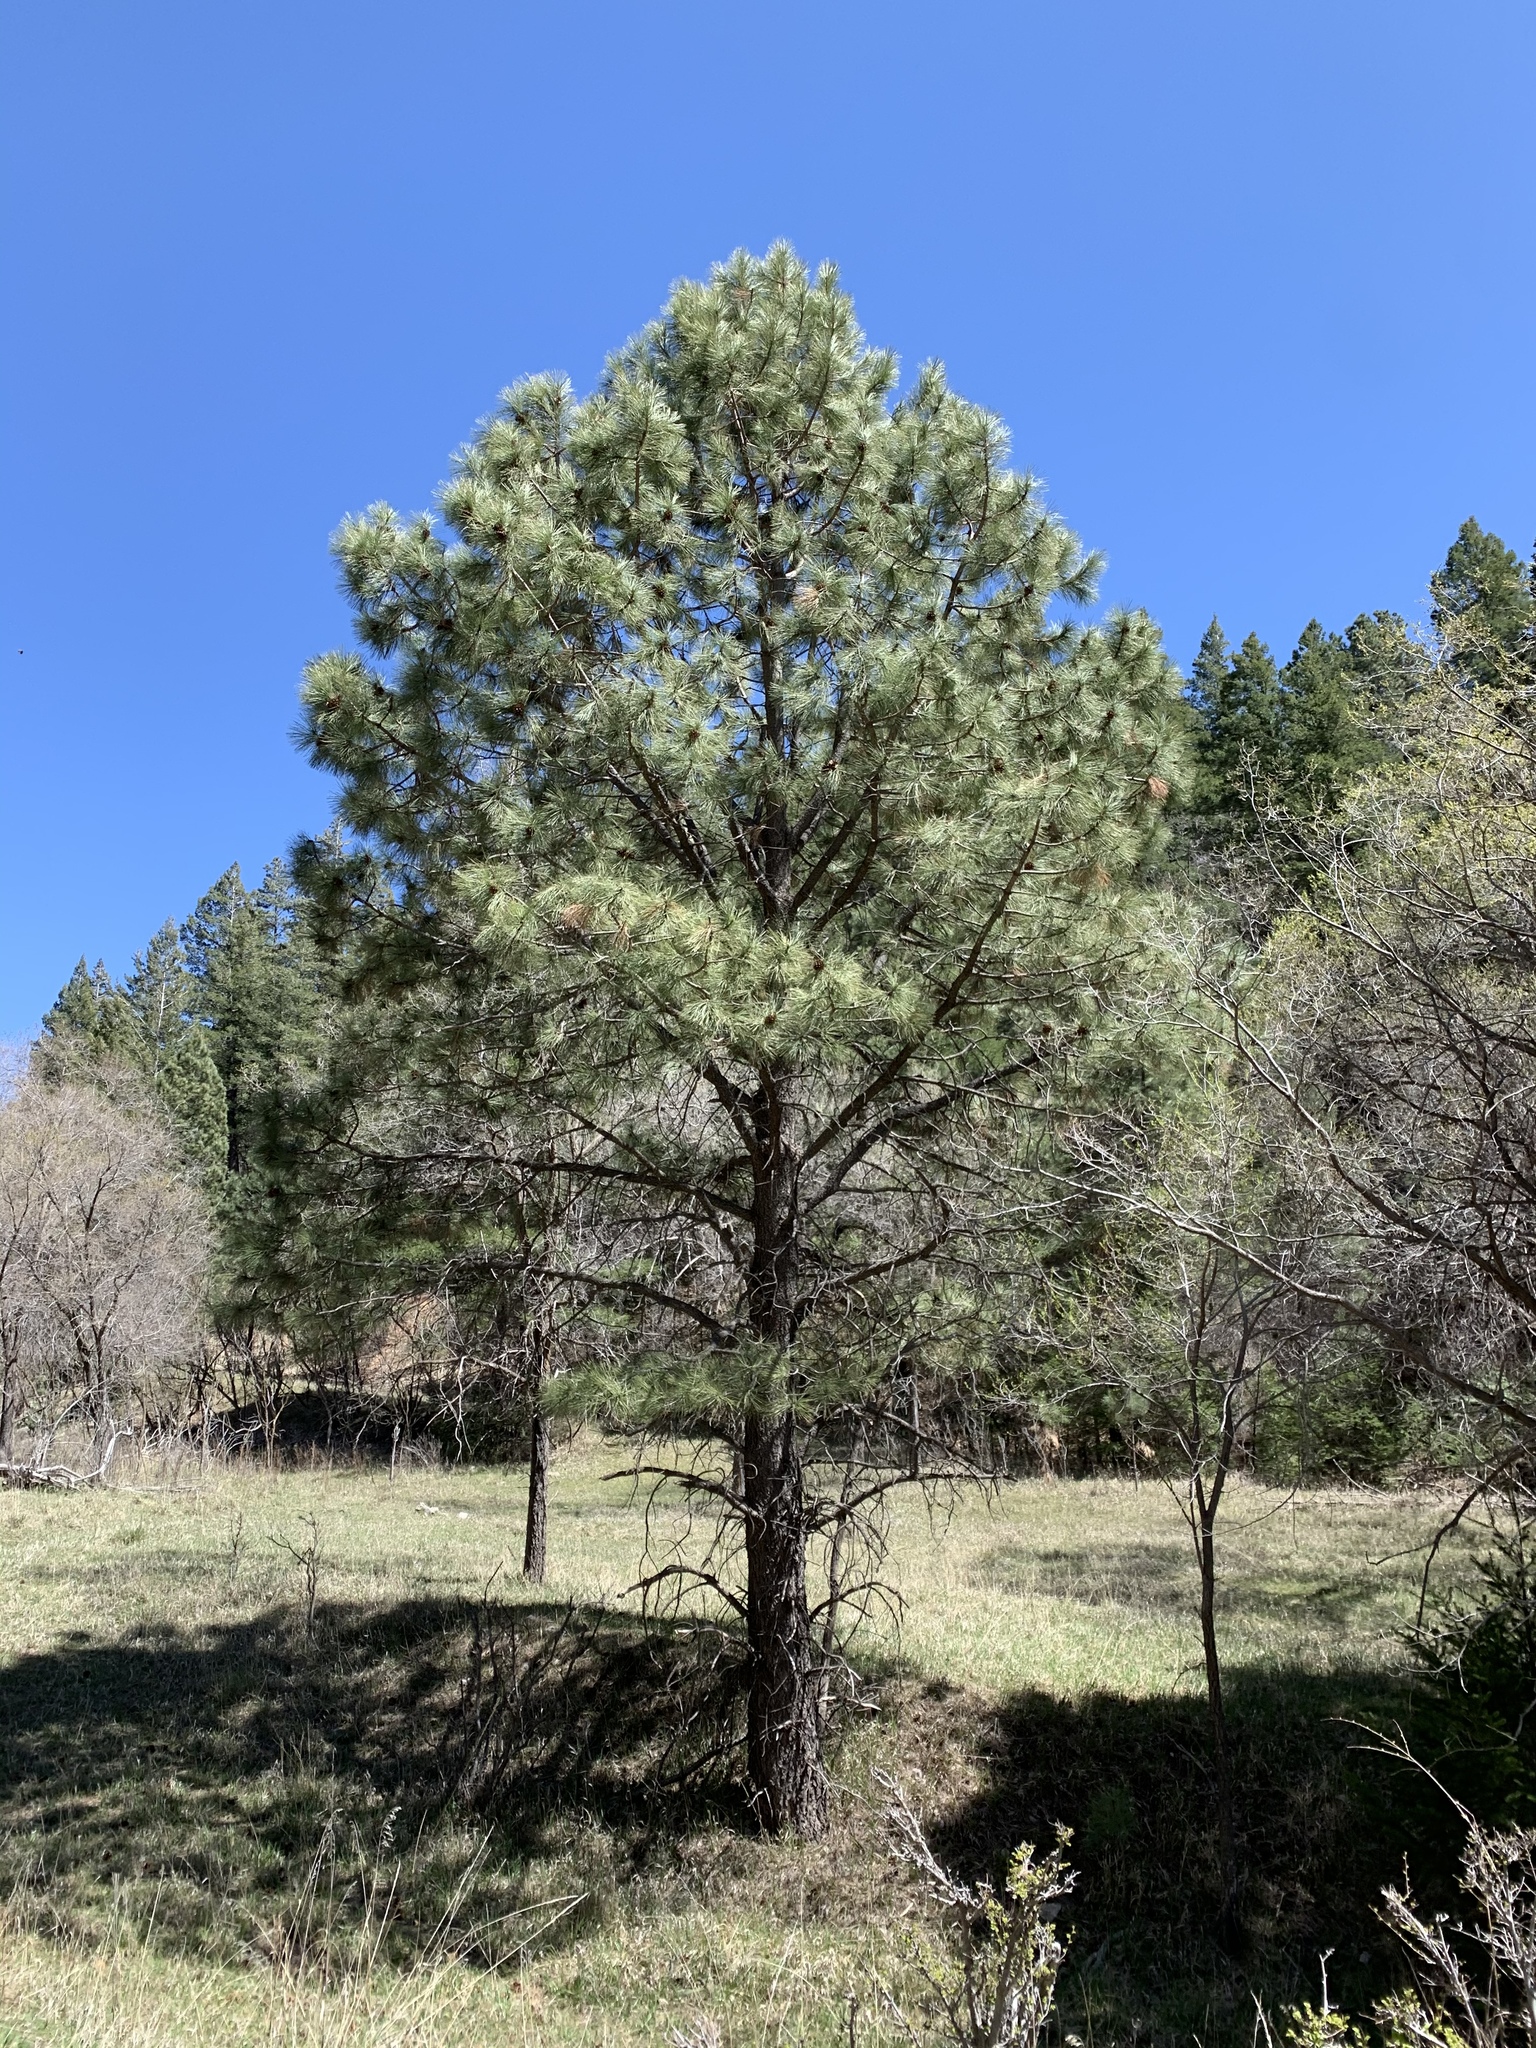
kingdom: Plantae
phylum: Tracheophyta
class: Pinopsida
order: Pinales
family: Pinaceae
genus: Pinus
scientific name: Pinus ponderosa
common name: Western yellow-pine
